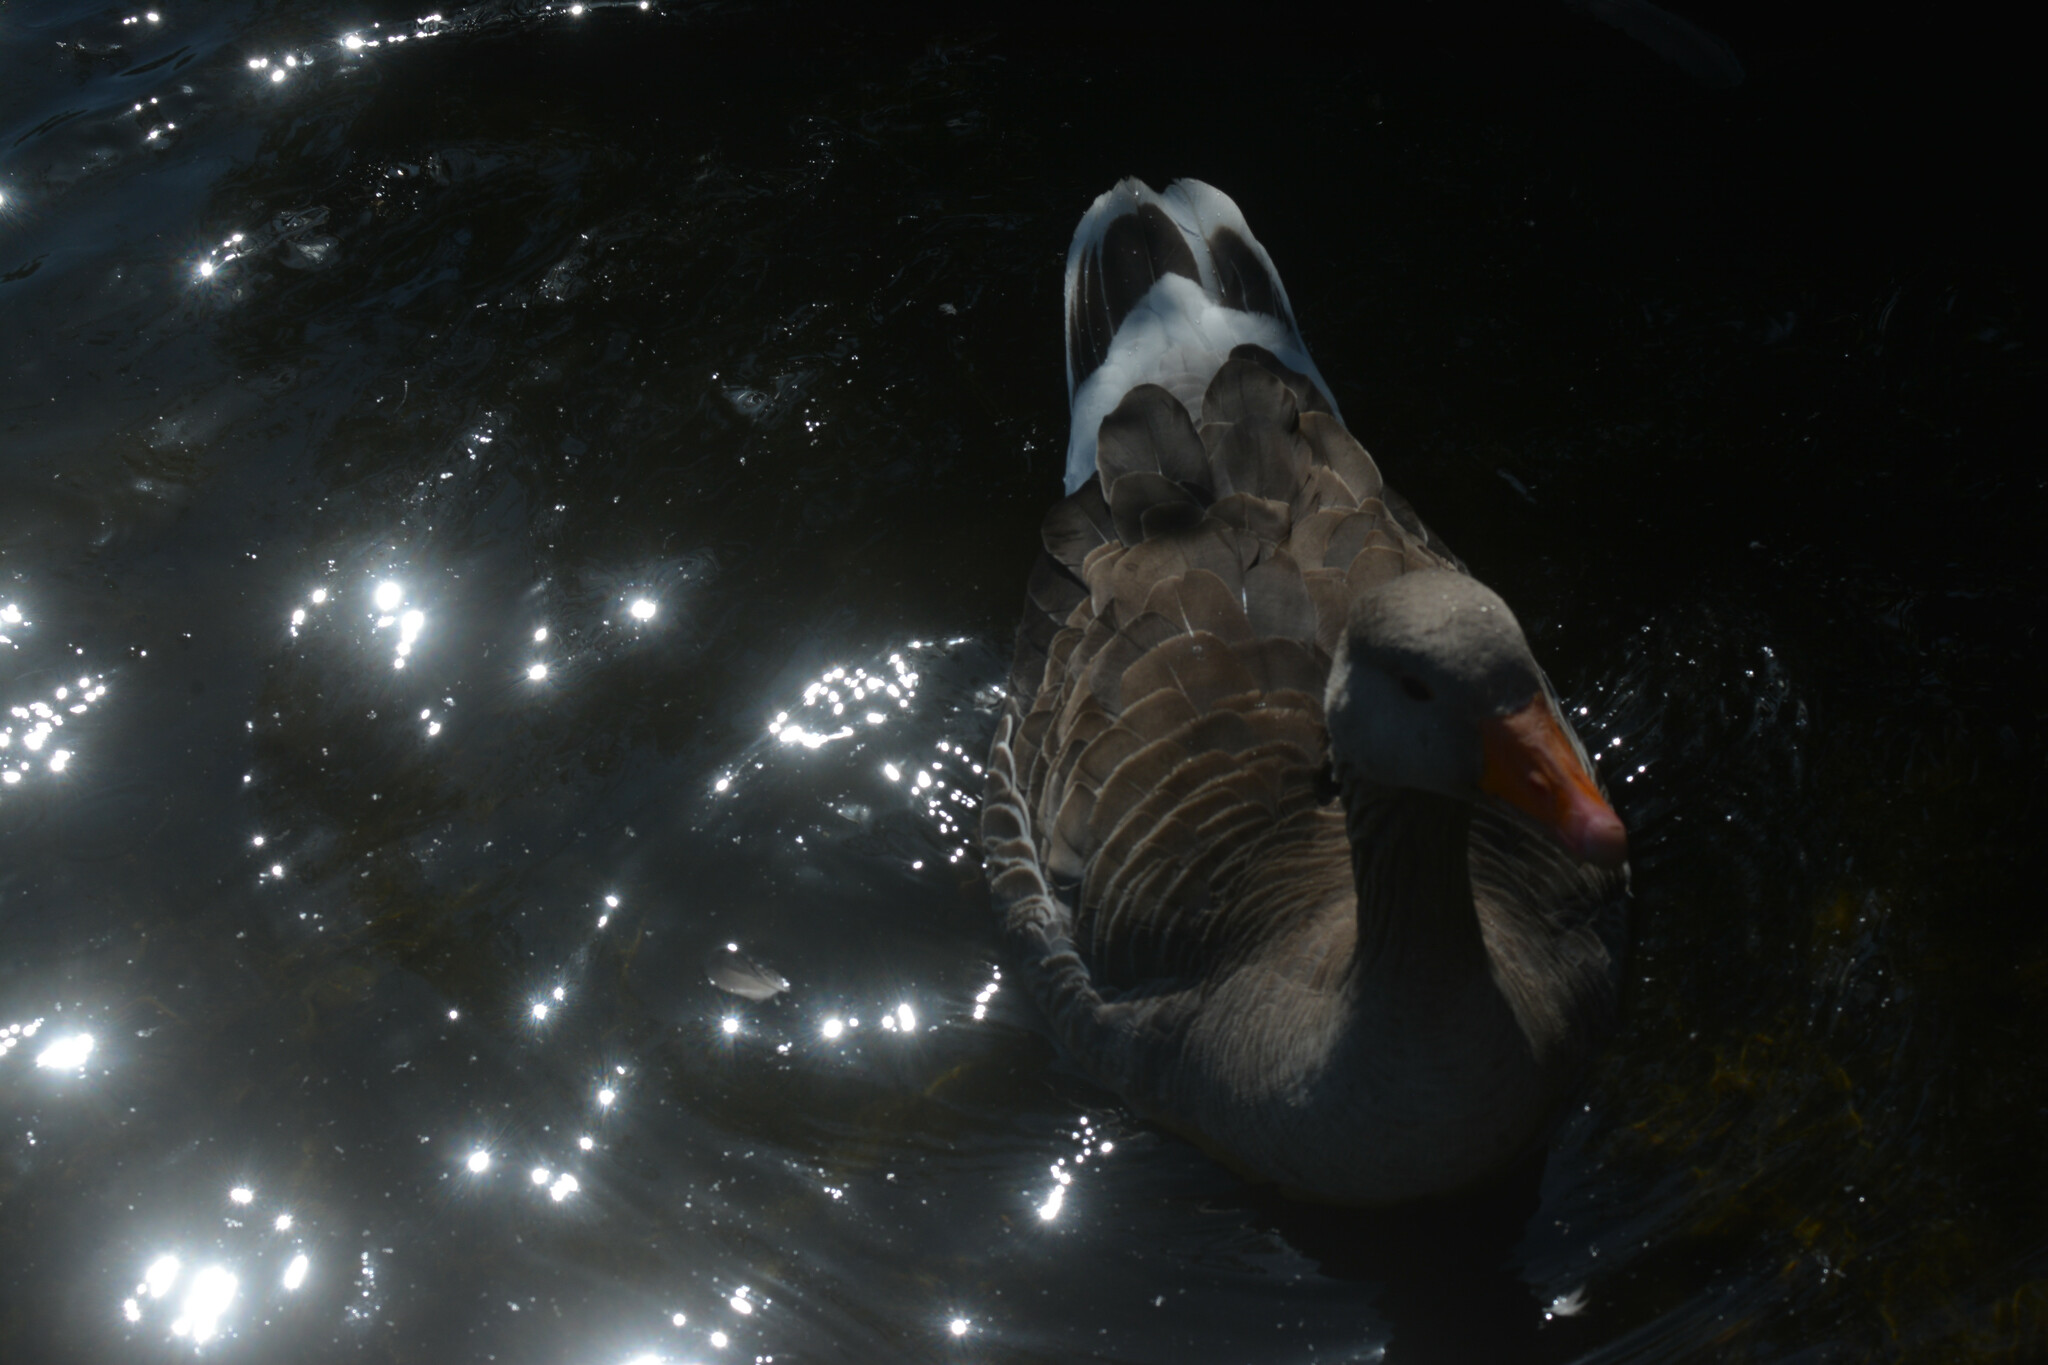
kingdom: Animalia
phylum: Chordata
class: Aves
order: Anseriformes
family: Anatidae
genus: Anser
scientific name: Anser anser
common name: Greylag goose
